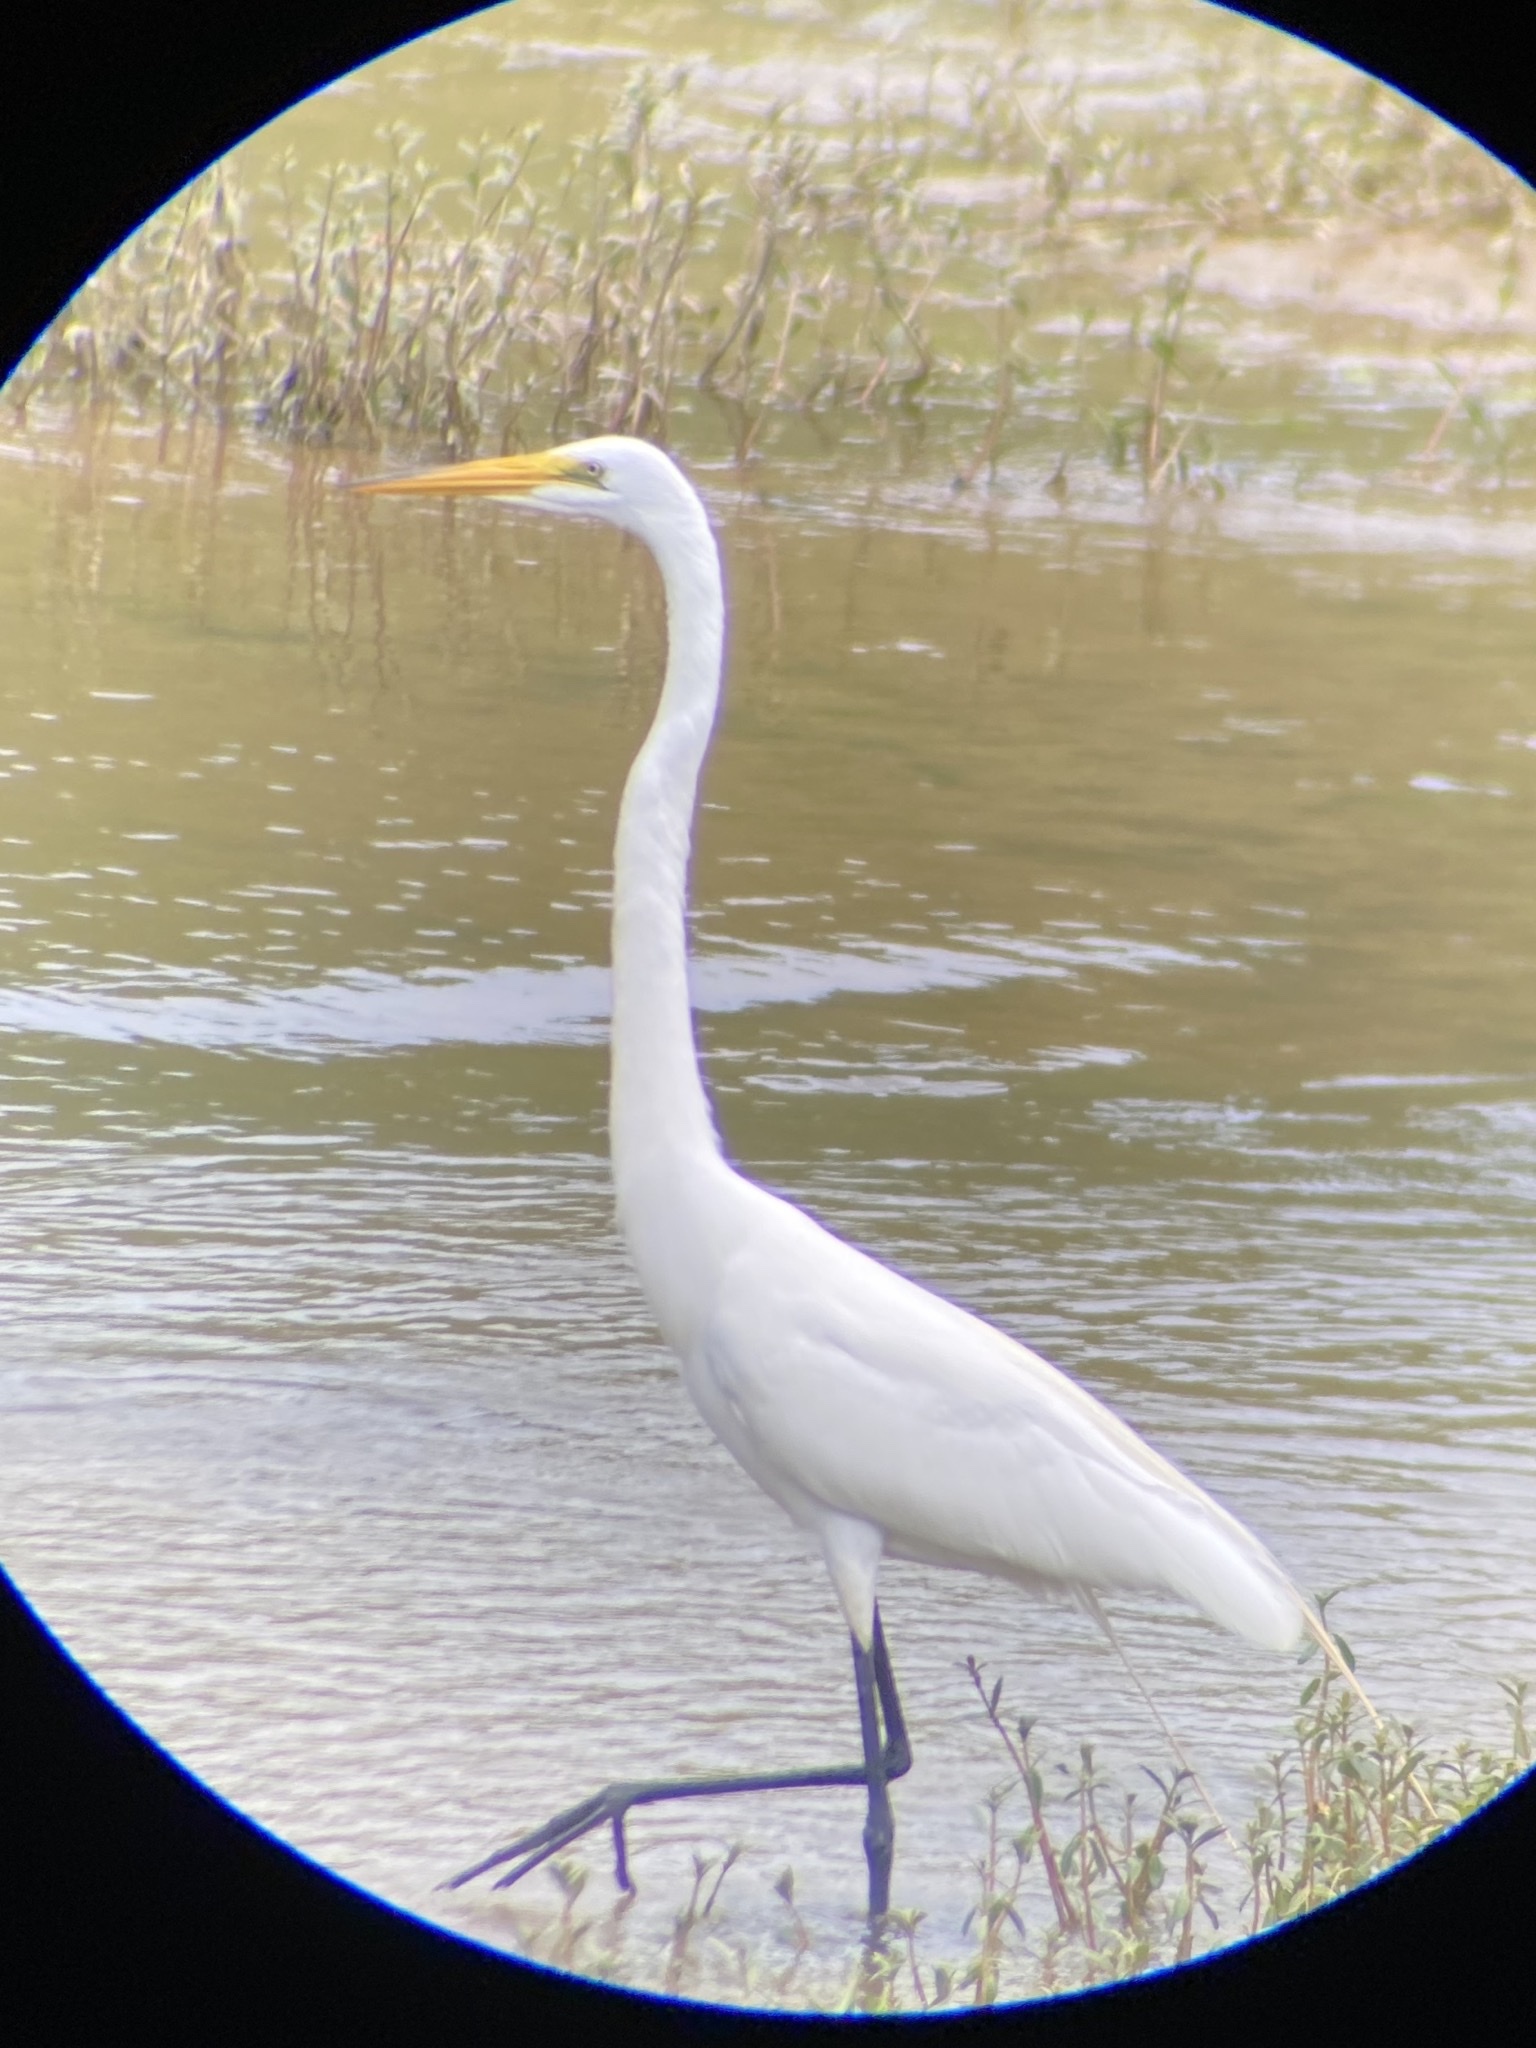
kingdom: Animalia
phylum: Chordata
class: Aves
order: Pelecaniformes
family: Ardeidae
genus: Ardea
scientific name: Ardea alba
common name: Great egret
